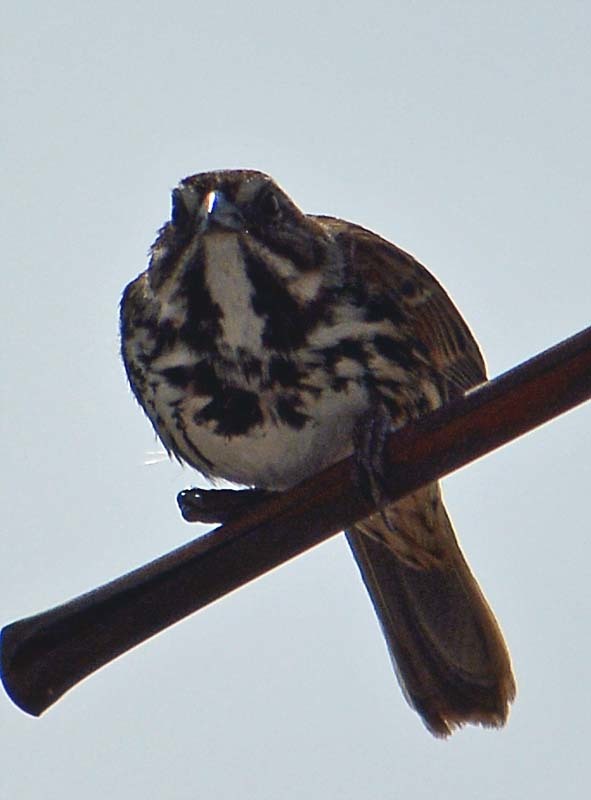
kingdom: Animalia
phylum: Chordata
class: Aves
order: Passeriformes
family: Passerellidae
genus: Melospiza
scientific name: Melospiza melodia
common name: Song sparrow
